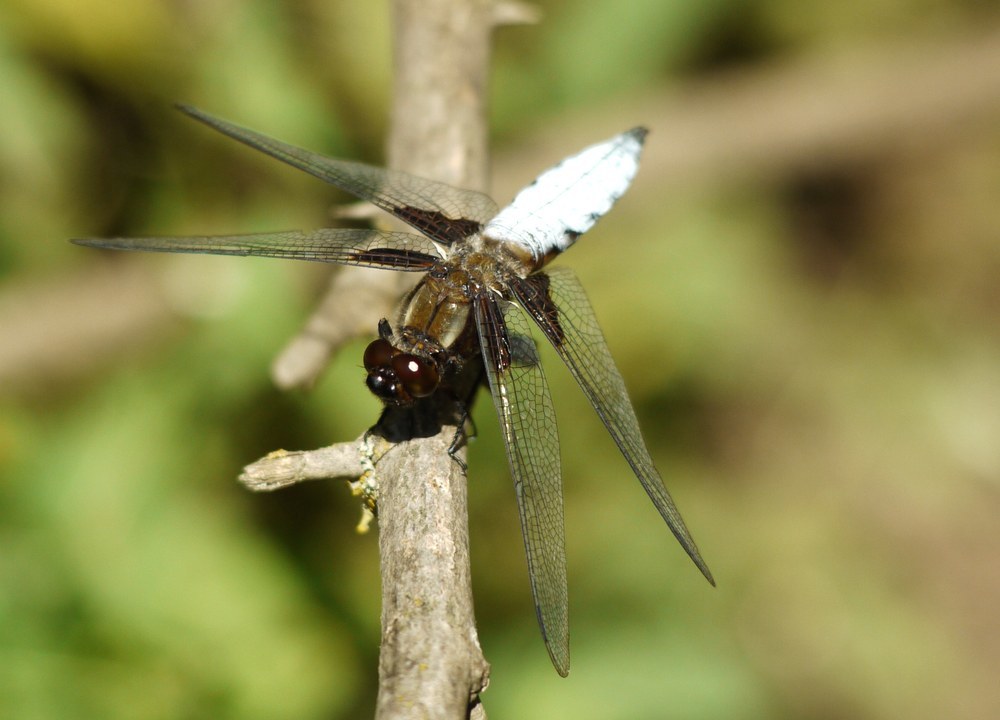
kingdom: Animalia
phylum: Arthropoda
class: Insecta
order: Odonata
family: Libellulidae
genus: Libellula
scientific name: Libellula depressa
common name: Broad-bodied chaser
